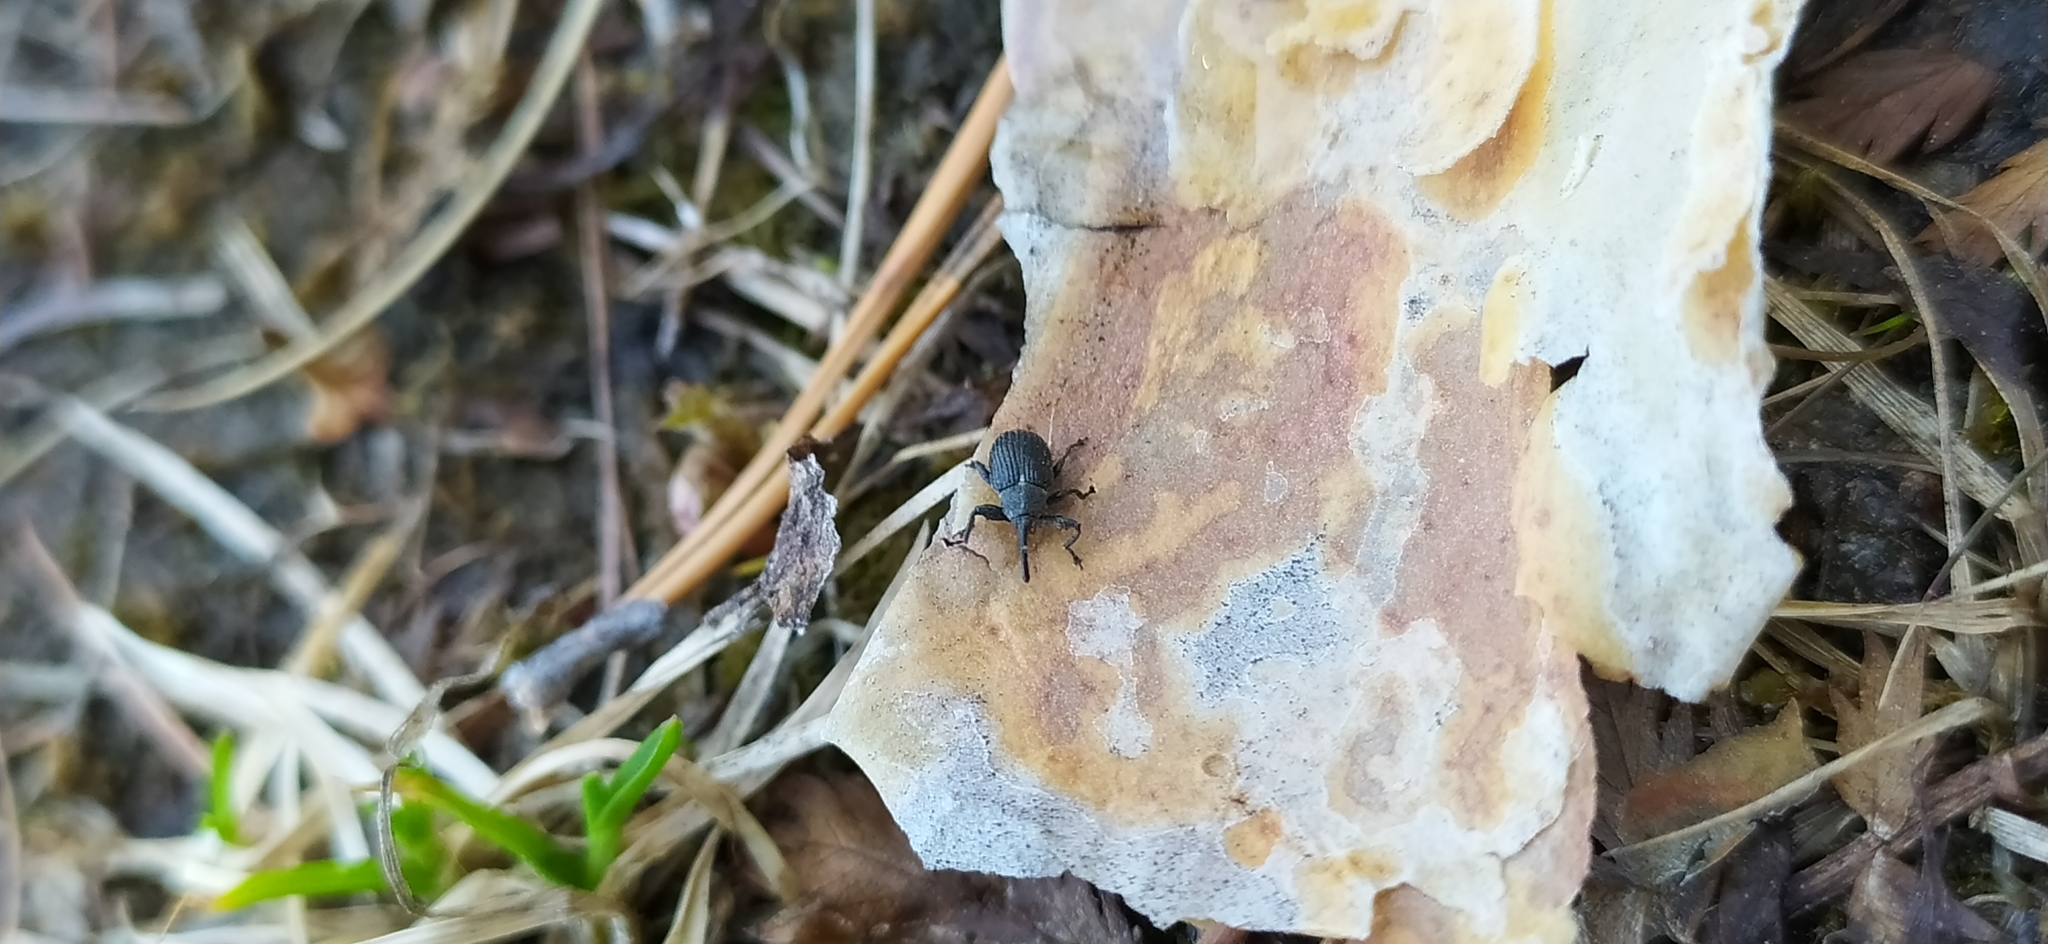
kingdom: Animalia
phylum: Arthropoda
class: Insecta
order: Coleoptera
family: Curculionidae
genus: Anthonomus
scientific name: Anthonomus rubi
